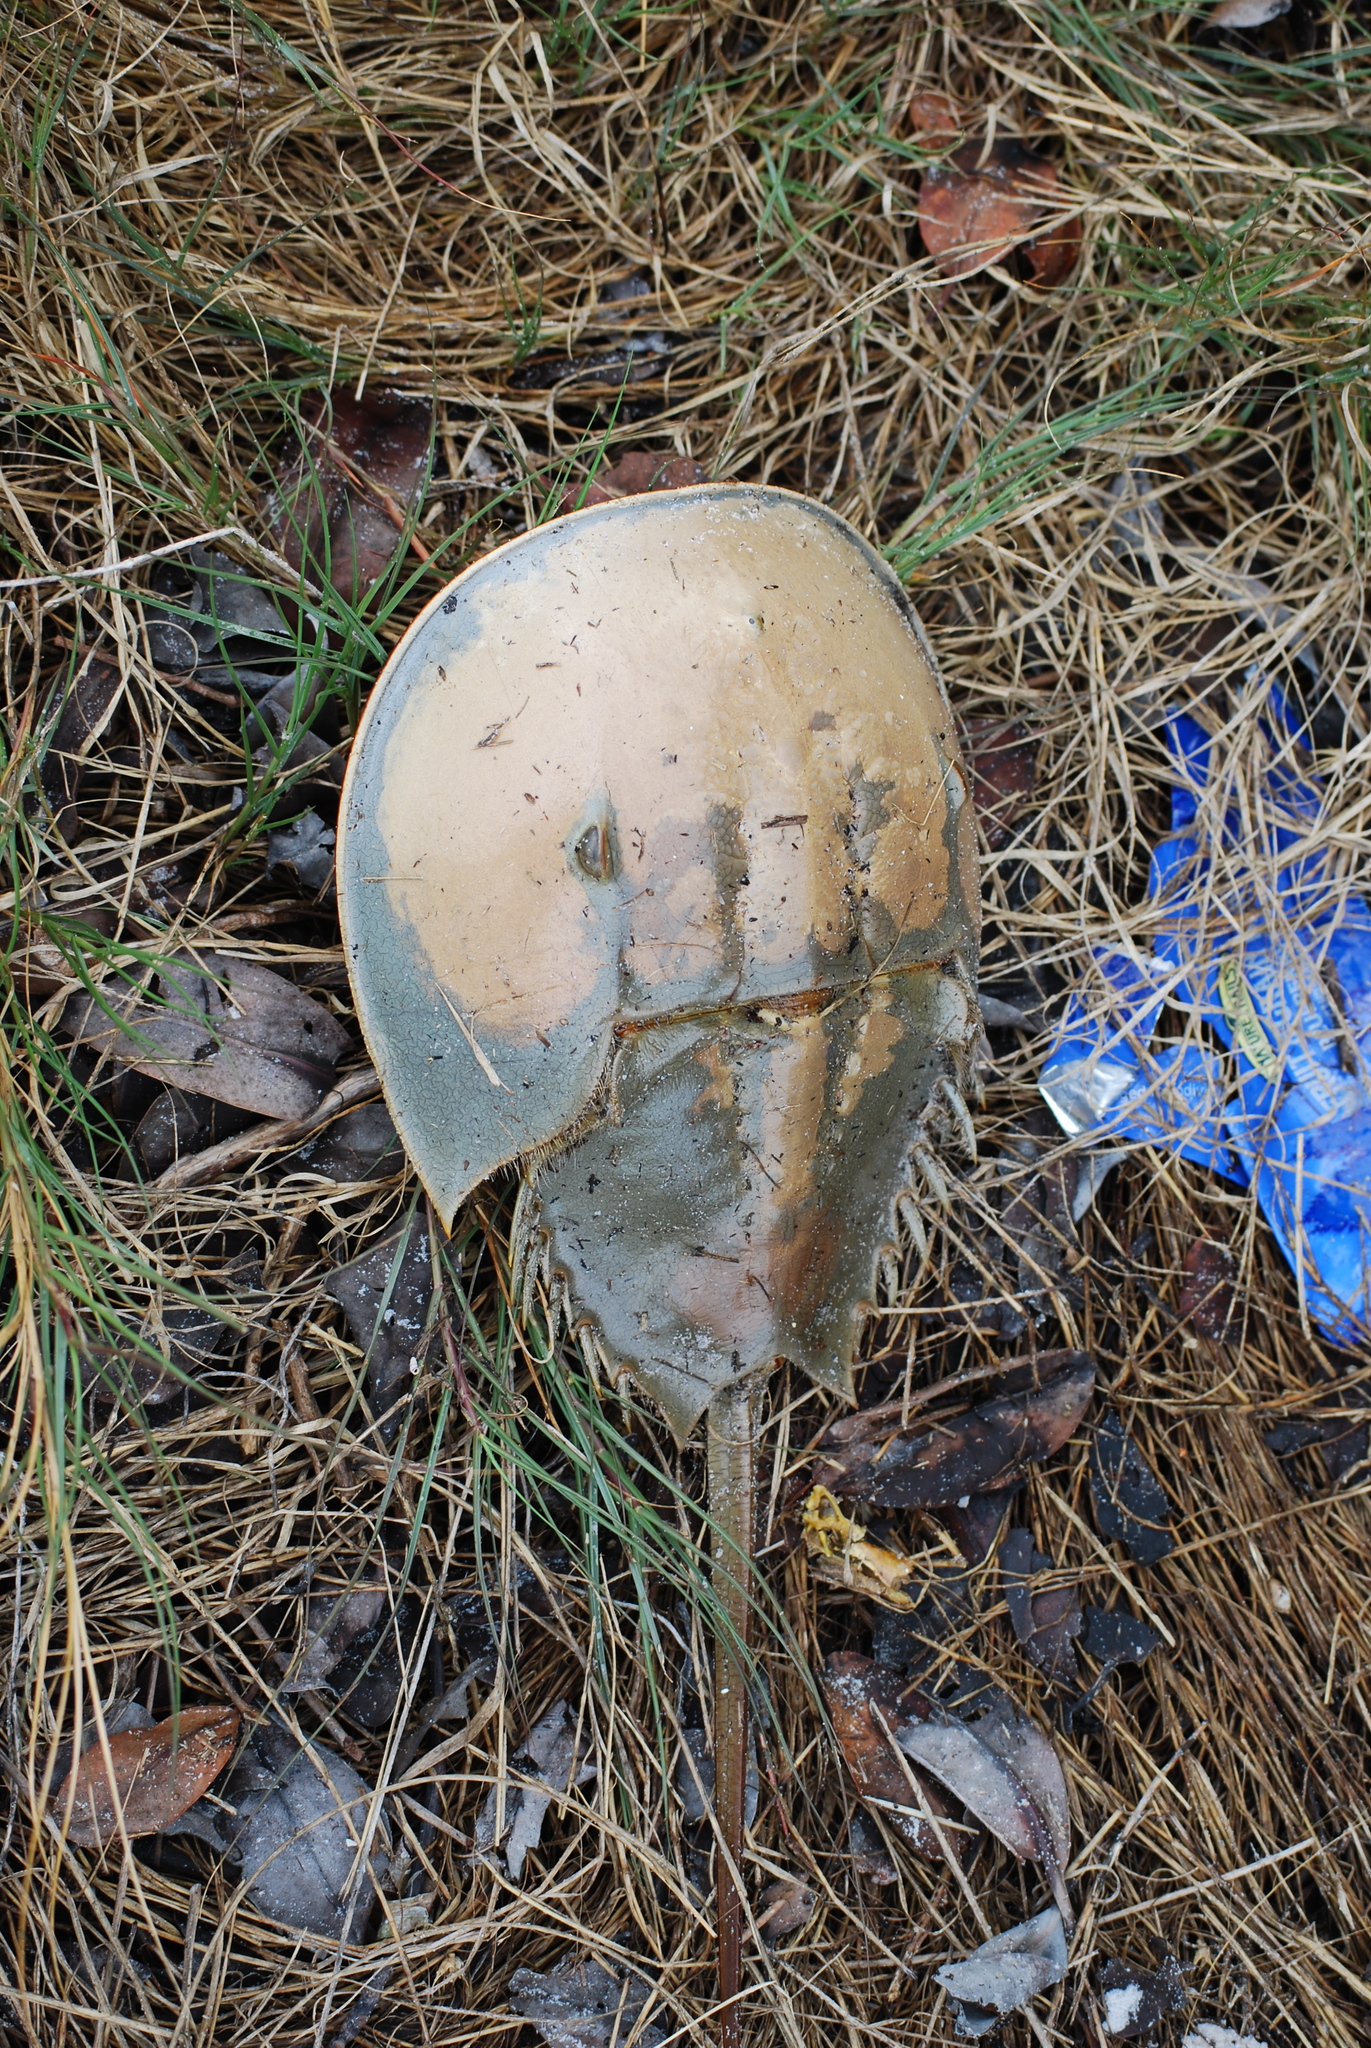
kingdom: Animalia
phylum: Arthropoda
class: Merostomata
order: Xiphosurida
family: Limulidae
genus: Limulus
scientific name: Limulus polyphemus
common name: Horseshoe crab
